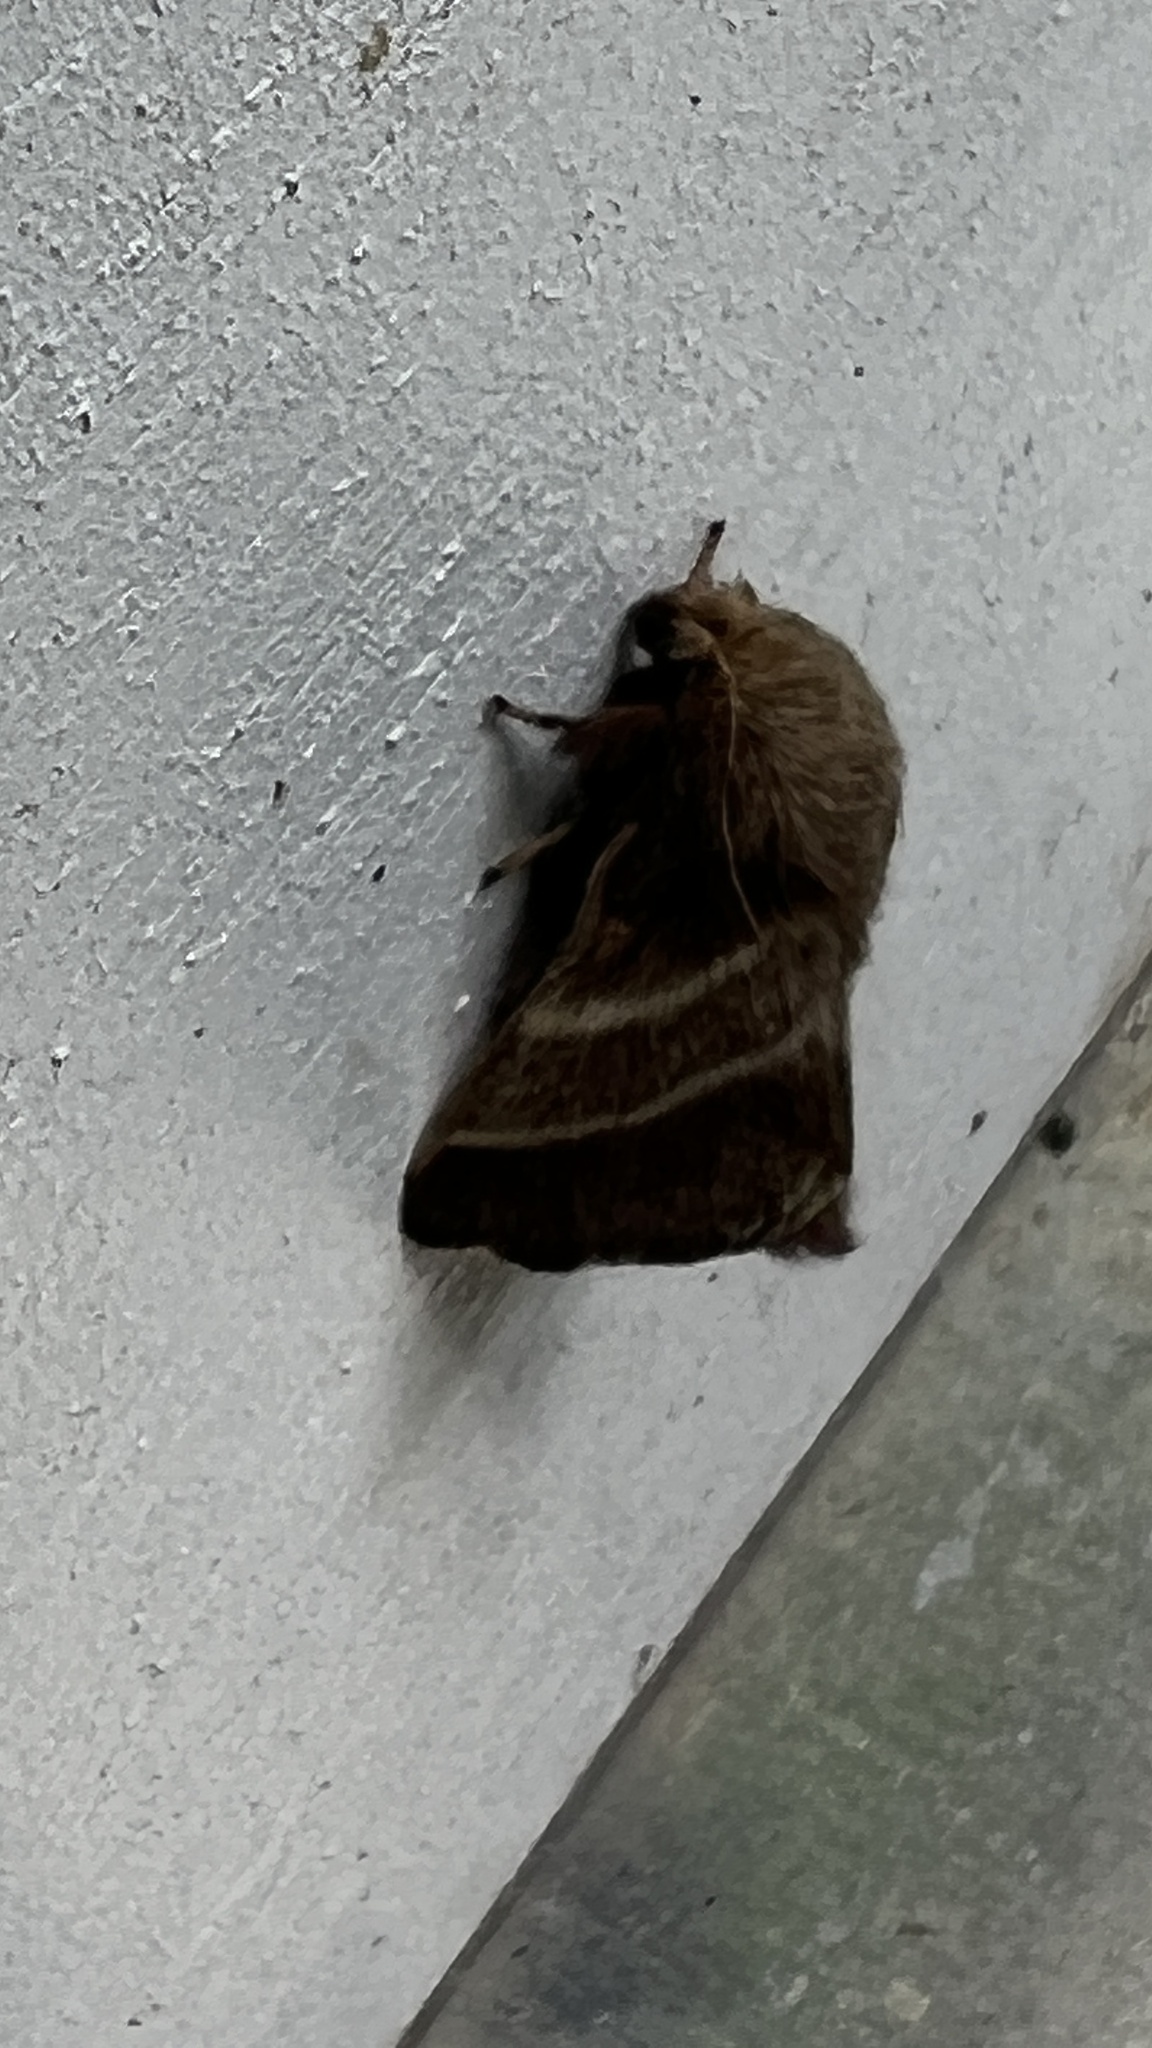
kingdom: Animalia
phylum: Arthropoda
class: Insecta
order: Lepidoptera
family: Lasiocampidae
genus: Malacosoma
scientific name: Malacosoma americana
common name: Eastern tent caterpillar moth
